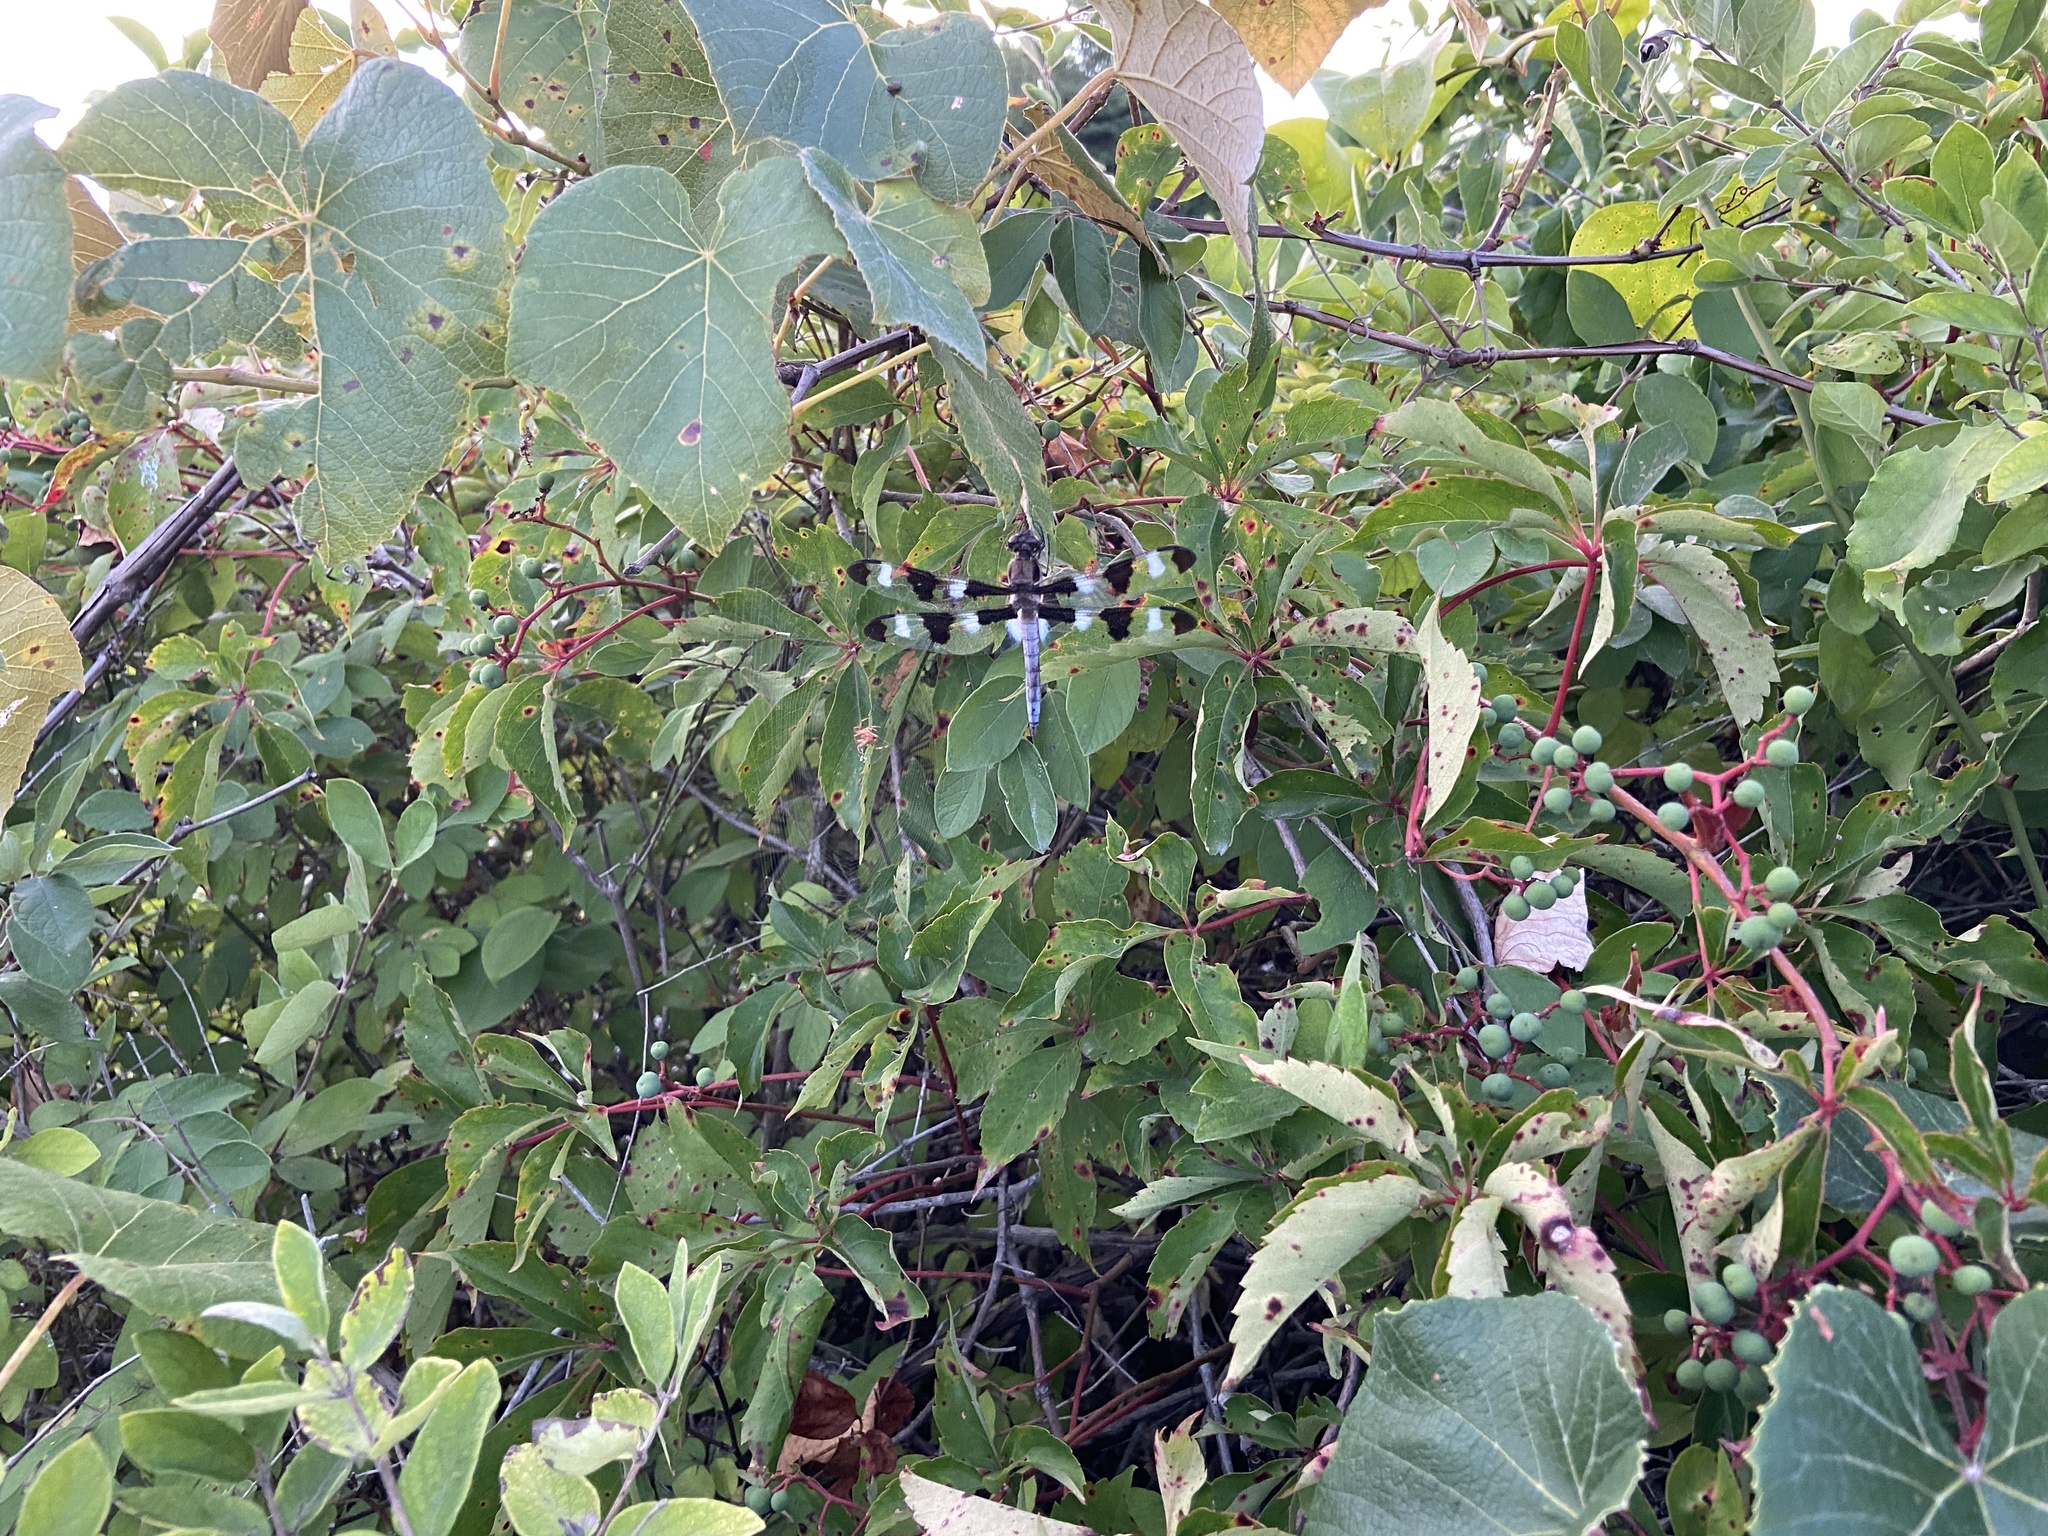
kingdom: Animalia
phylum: Arthropoda
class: Insecta
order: Odonata
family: Libellulidae
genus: Libellula
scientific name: Libellula pulchella
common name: Twelve-spotted skimmer
